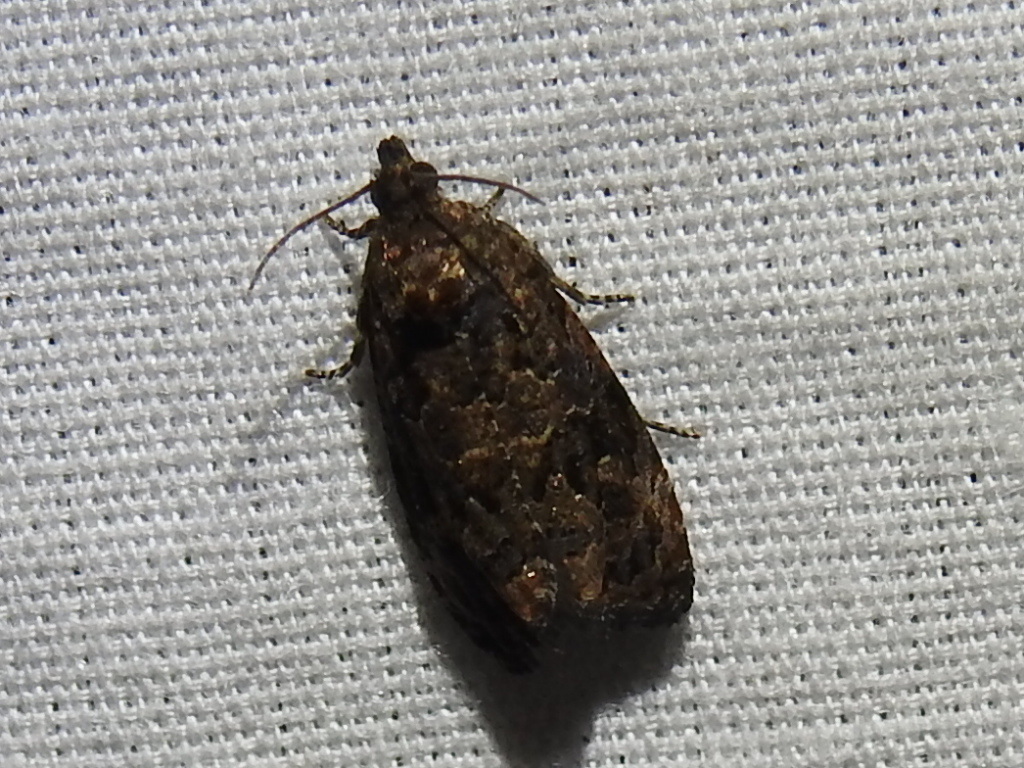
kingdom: Animalia
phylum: Arthropoda
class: Insecta
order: Lepidoptera
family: Tortricidae
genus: Endothenia
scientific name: Endothenia hebesana
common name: Verbena bud moth
